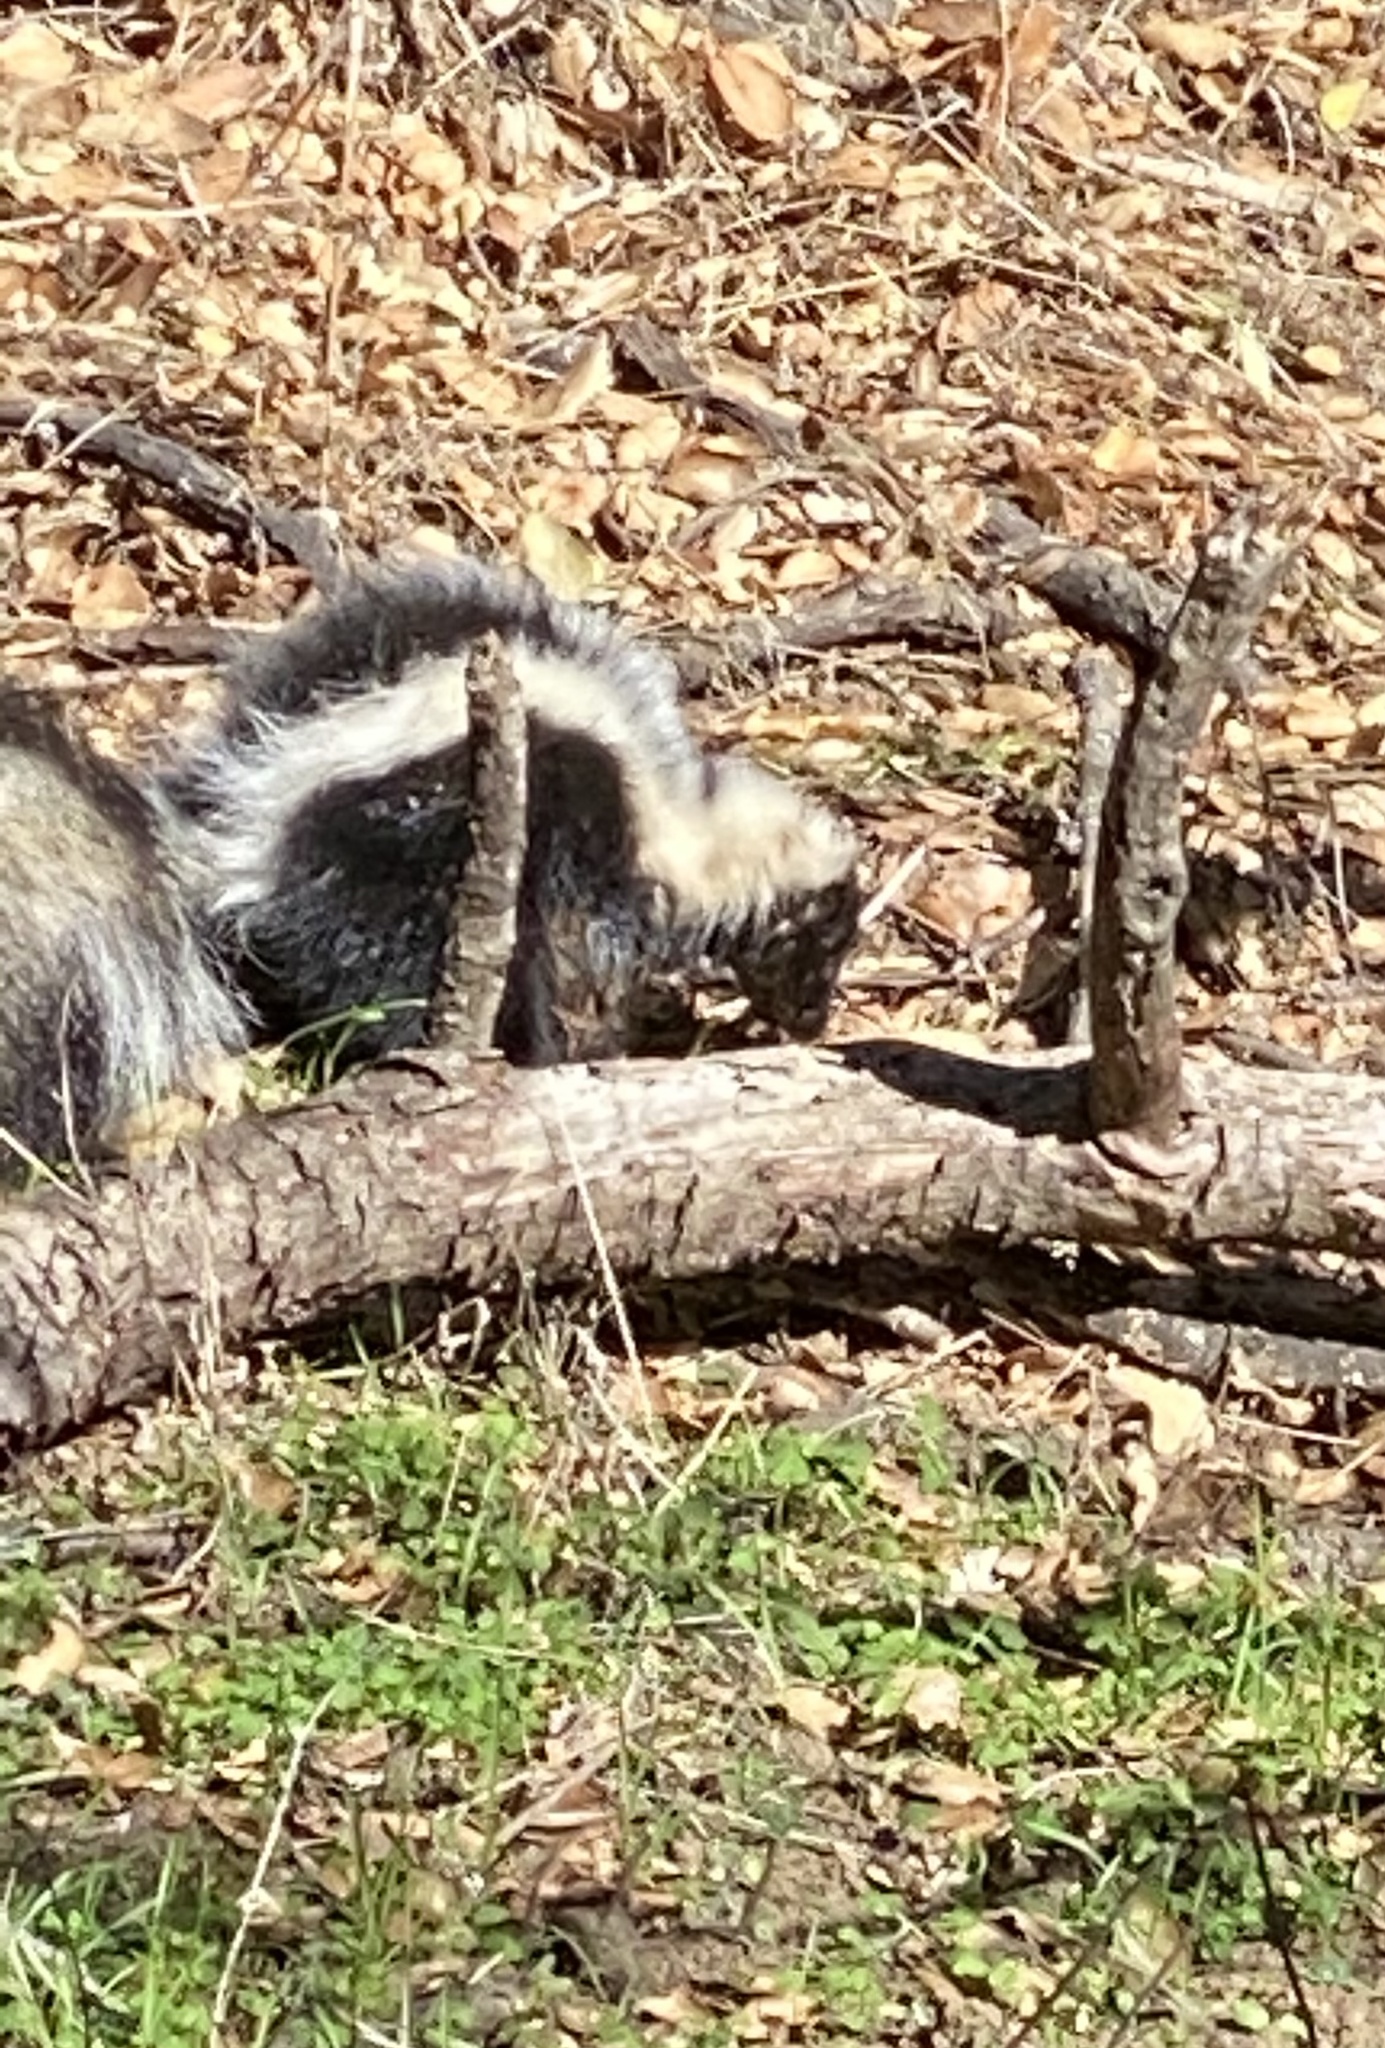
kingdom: Animalia
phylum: Chordata
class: Mammalia
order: Carnivora
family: Mephitidae
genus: Mephitis
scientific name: Mephitis mephitis
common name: Striped skunk
